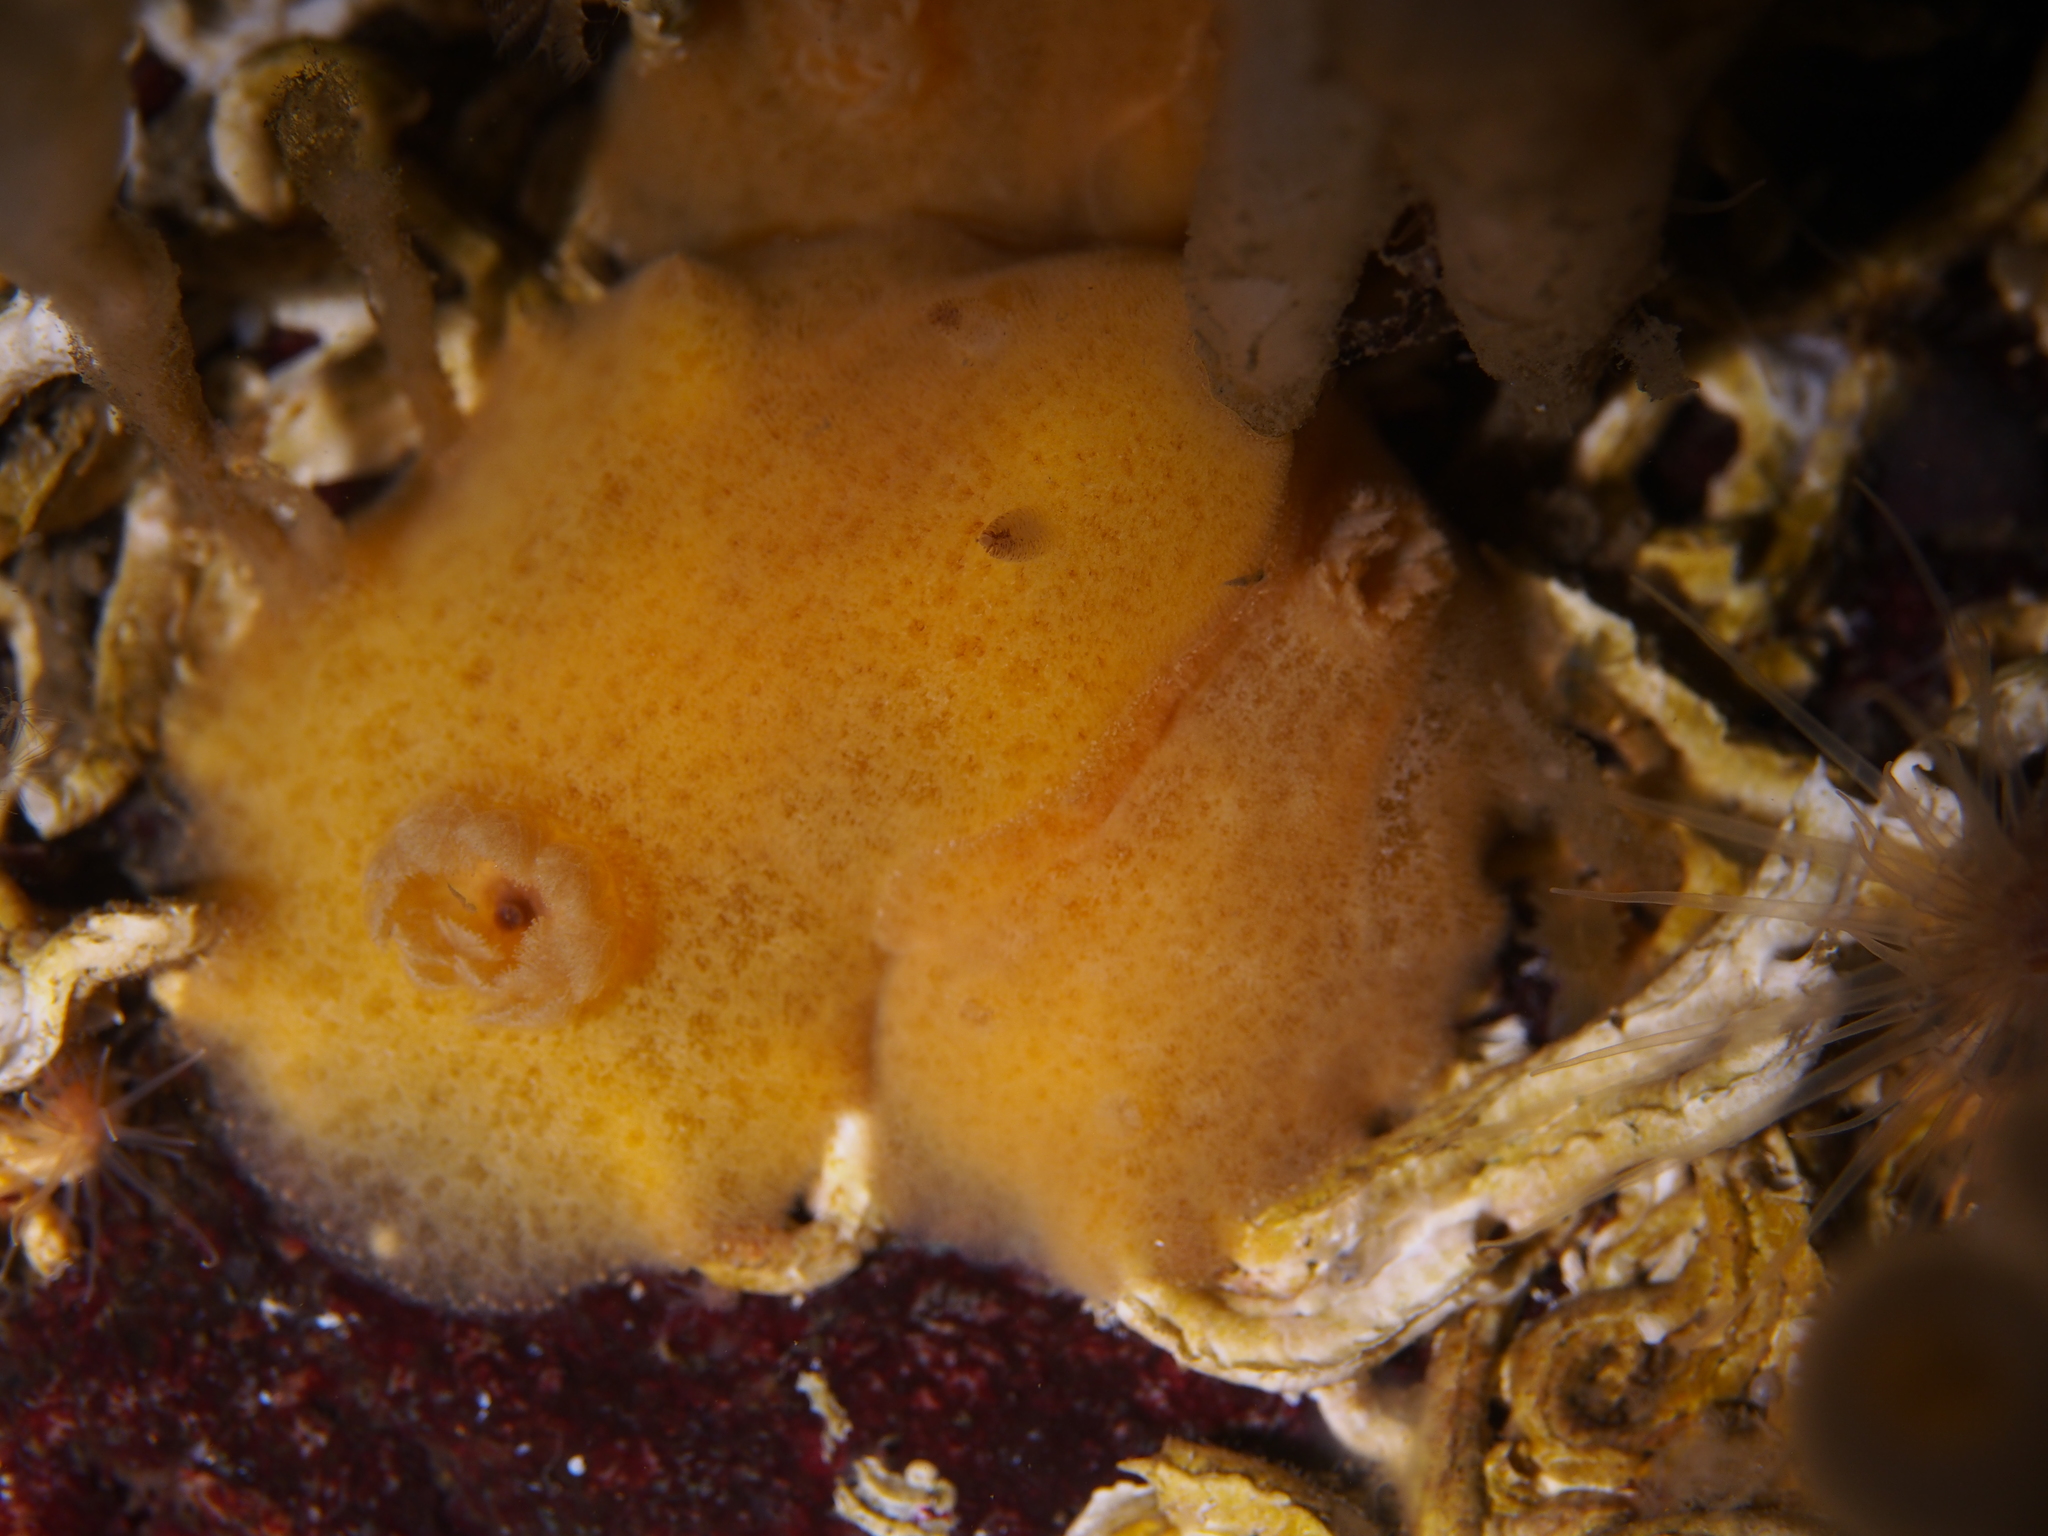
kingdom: Animalia
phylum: Mollusca
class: Gastropoda
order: Nudibranchia
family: Discodorididae
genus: Jorunna
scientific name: Jorunna tomentosa
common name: Grey sea slug
